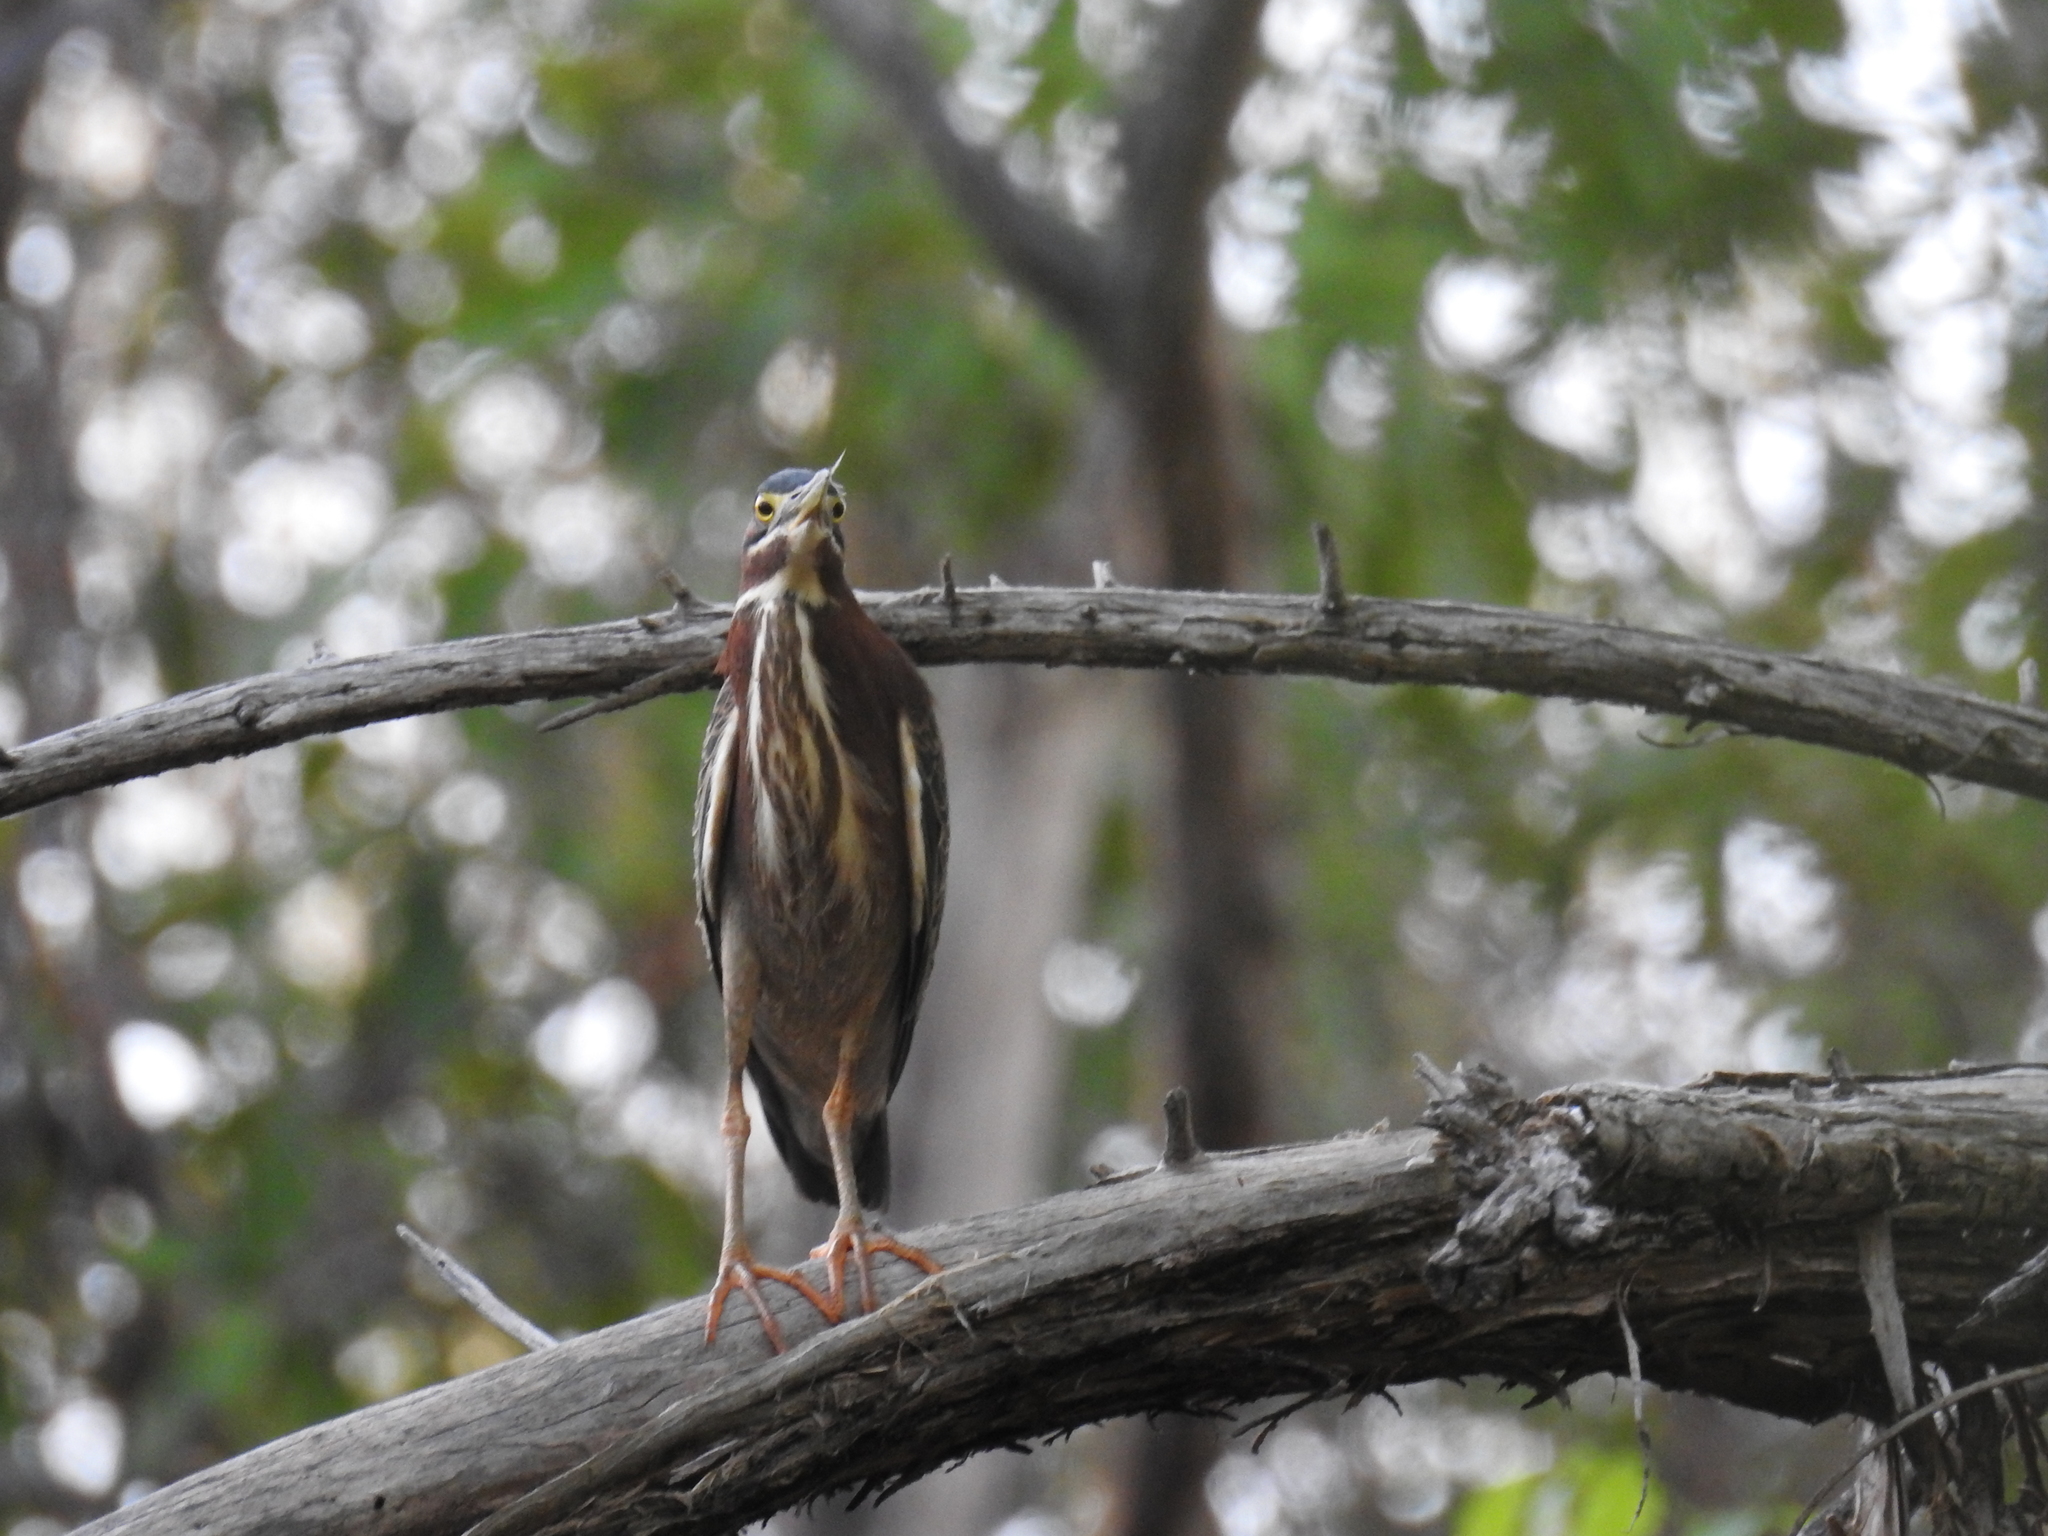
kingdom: Animalia
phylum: Chordata
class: Aves
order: Pelecaniformes
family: Ardeidae
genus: Butorides
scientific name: Butorides virescens
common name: Green heron
